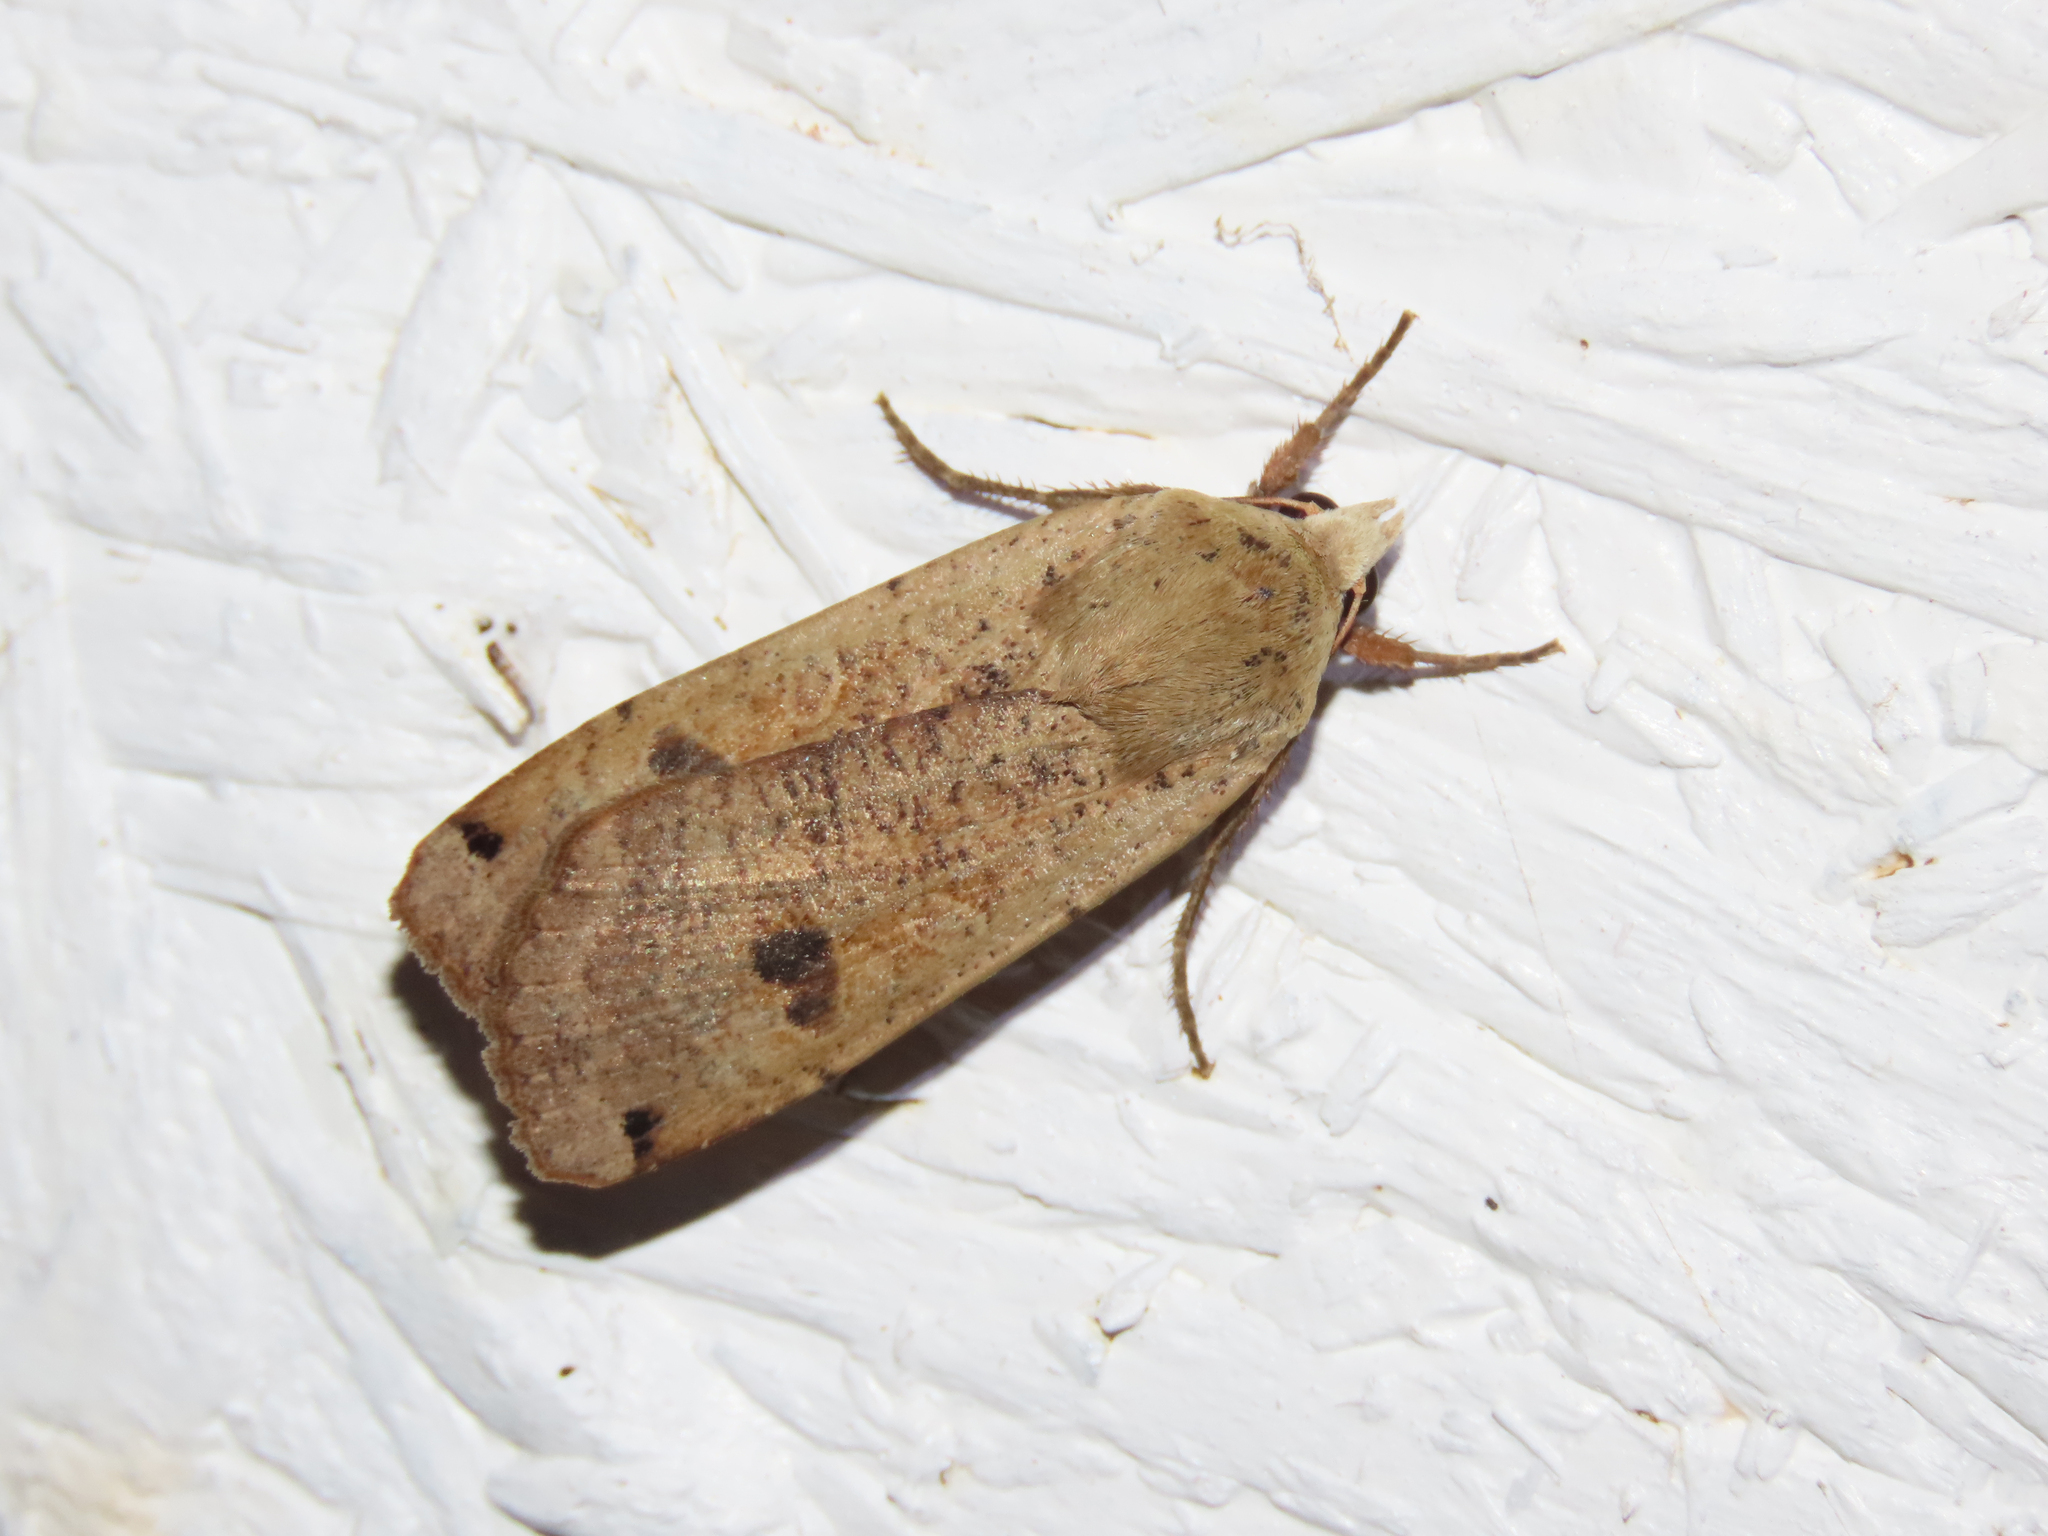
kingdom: Animalia
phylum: Arthropoda
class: Insecta
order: Lepidoptera
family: Noctuidae
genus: Noctua
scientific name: Noctua pronuba
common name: Large yellow underwing
